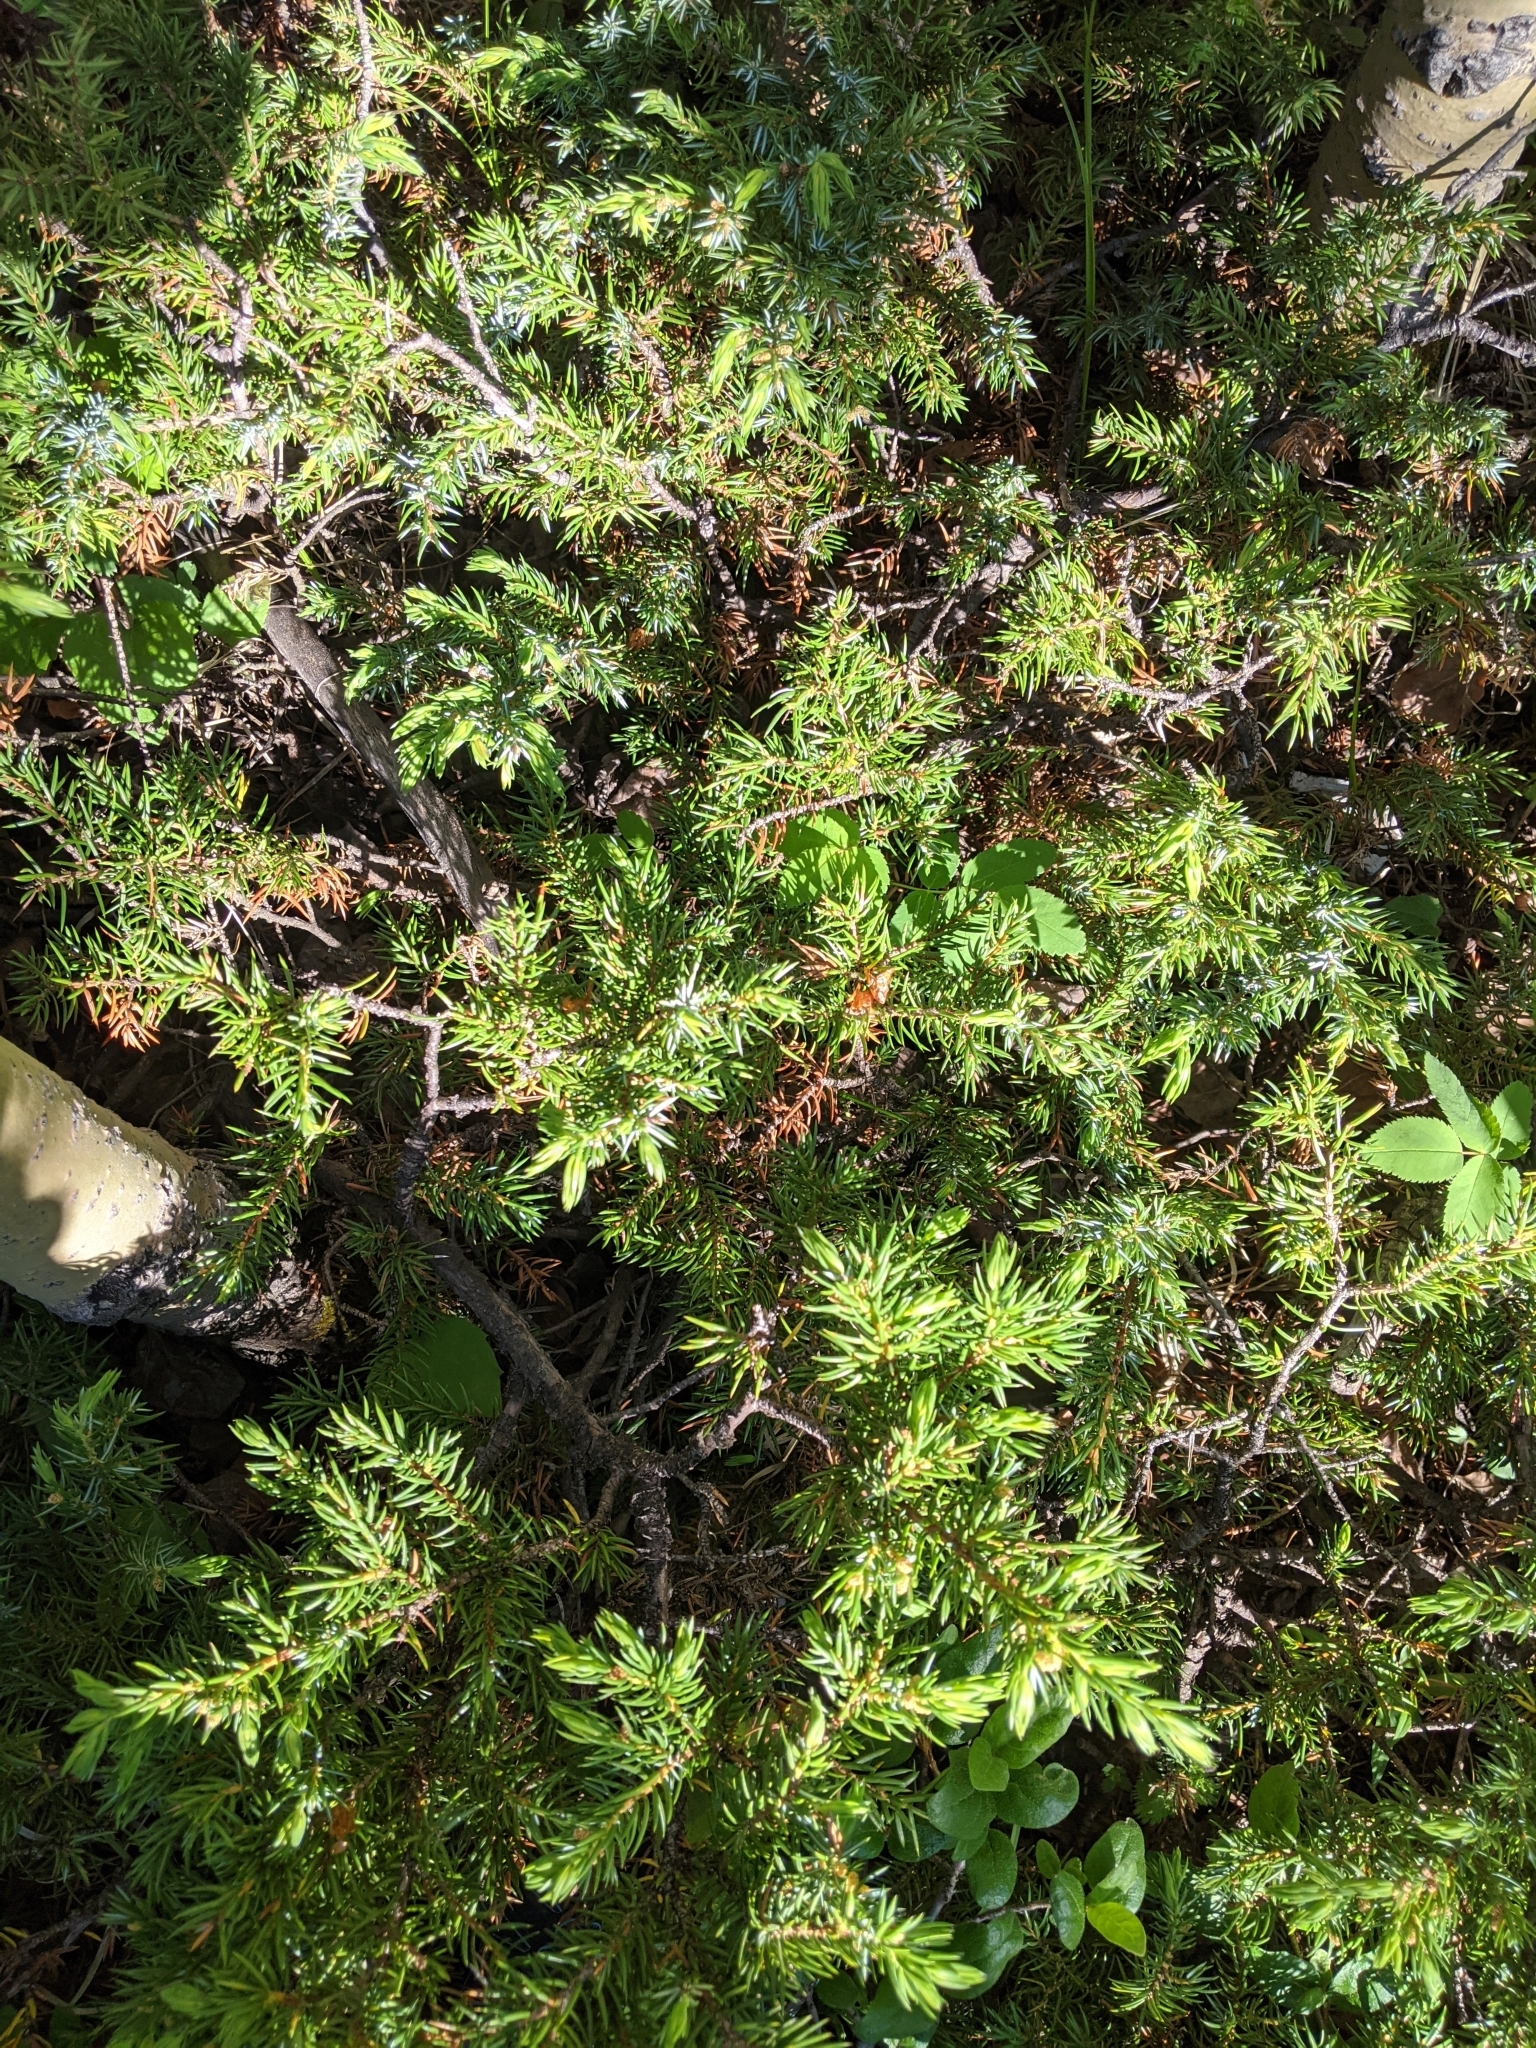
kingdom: Plantae
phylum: Tracheophyta
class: Pinopsida
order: Pinales
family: Cupressaceae
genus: Juniperus
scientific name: Juniperus communis
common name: Common juniper
